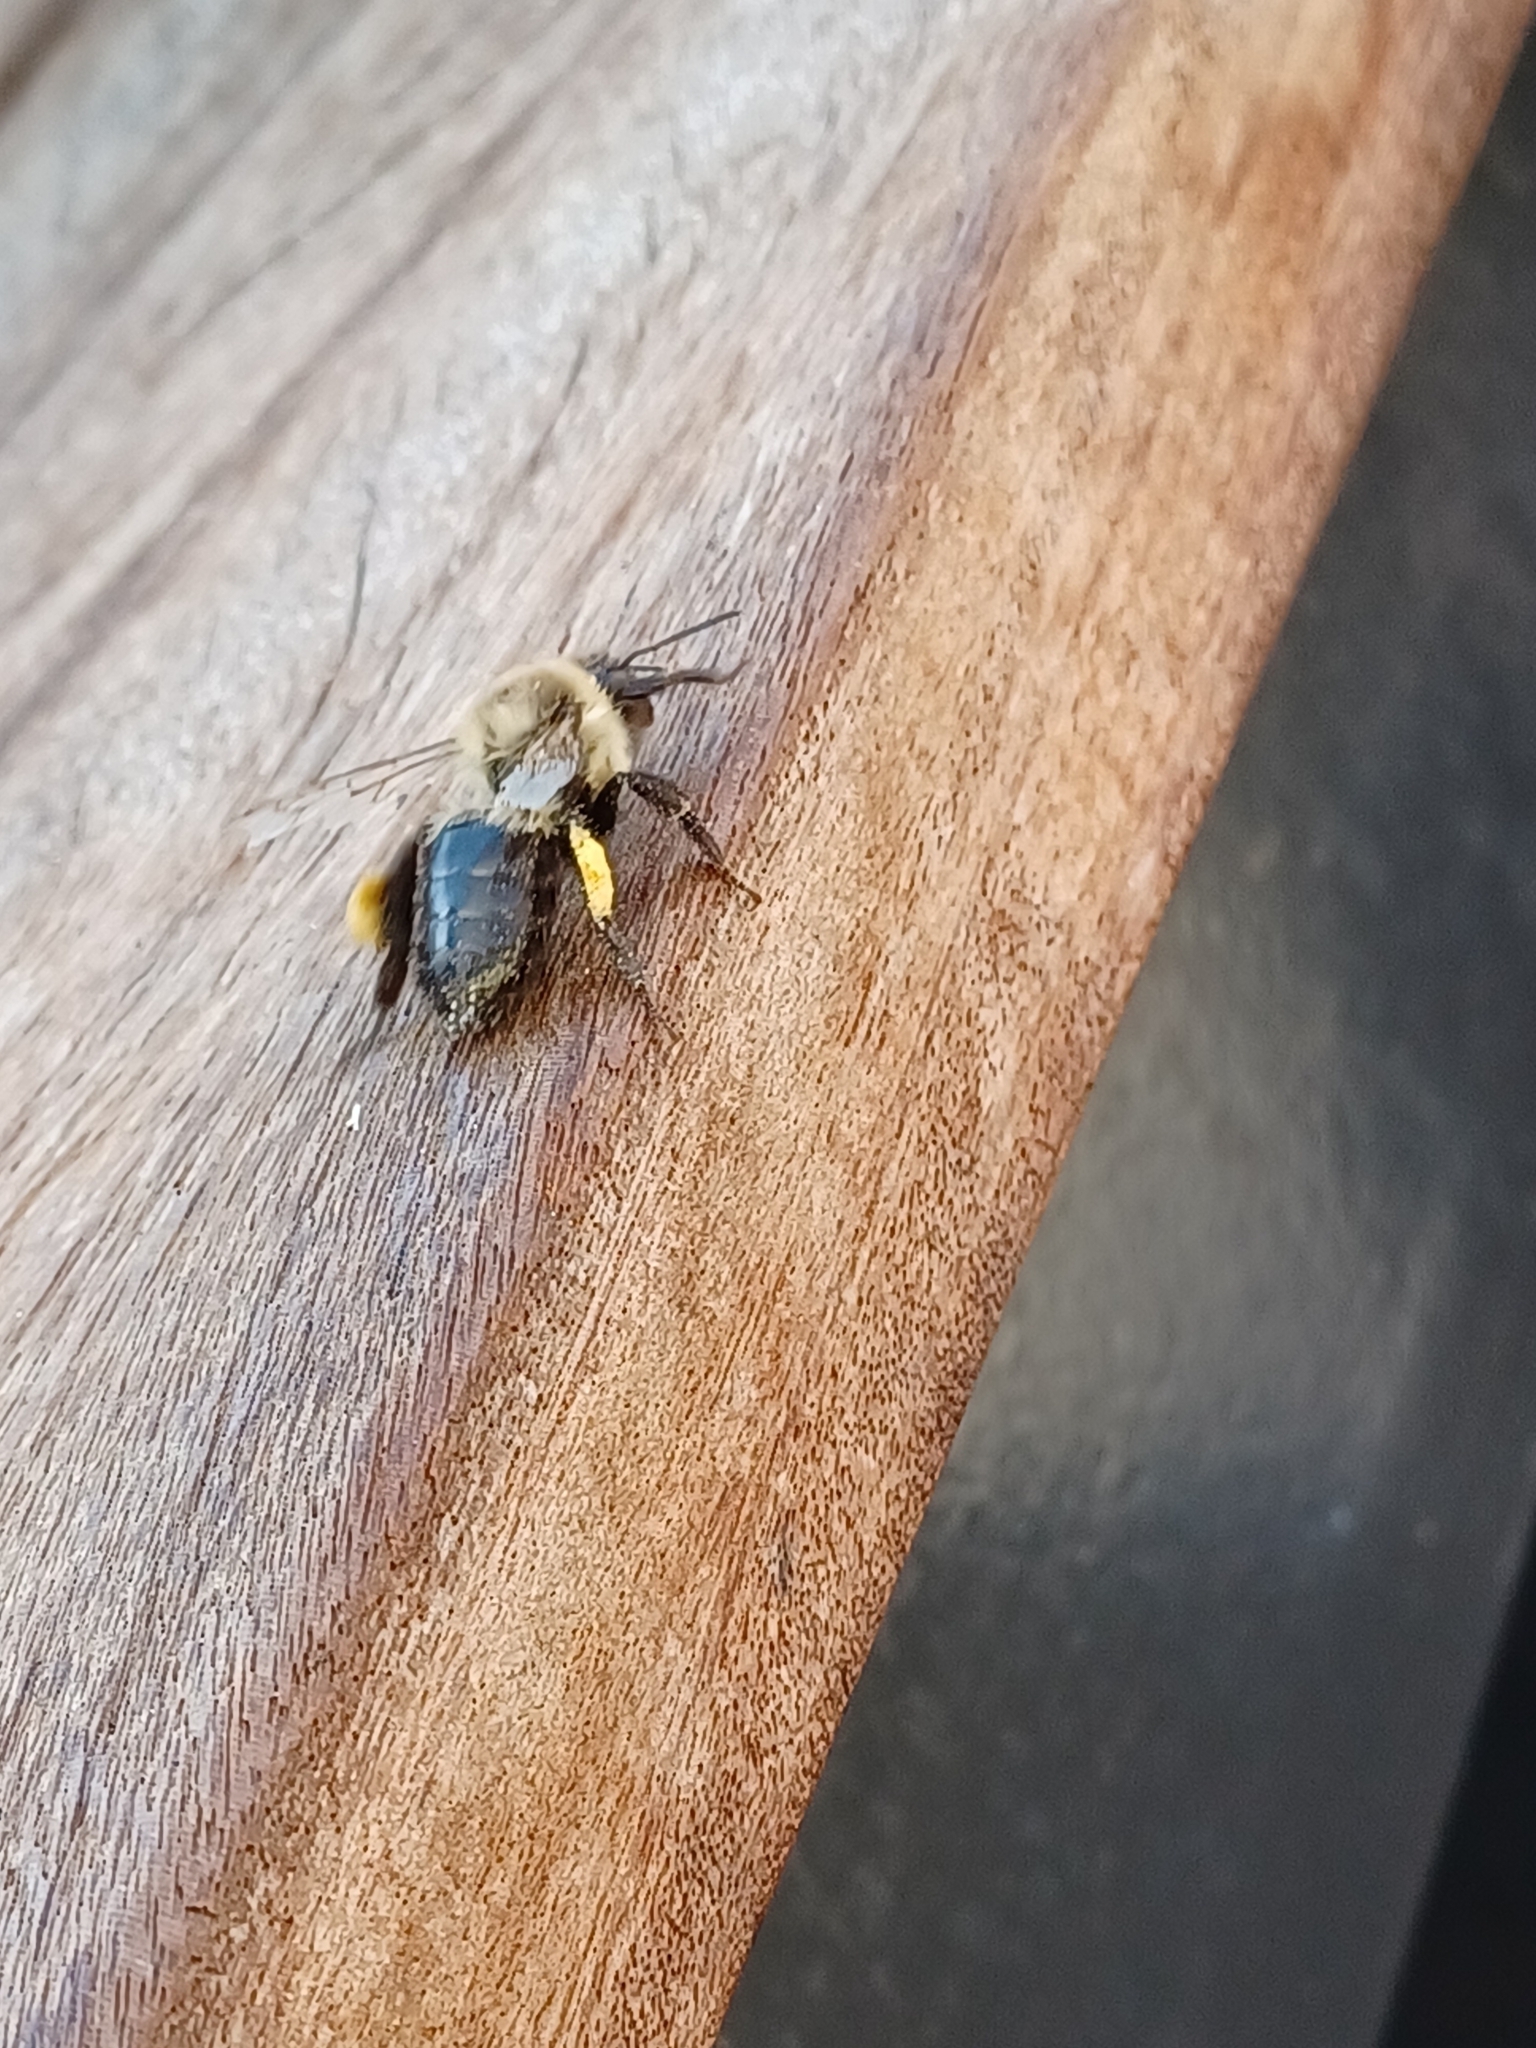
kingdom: Animalia
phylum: Arthropoda
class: Insecta
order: Hymenoptera
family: Apidae
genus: Bombus
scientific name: Bombus impatiens
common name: Common eastern bumble bee
